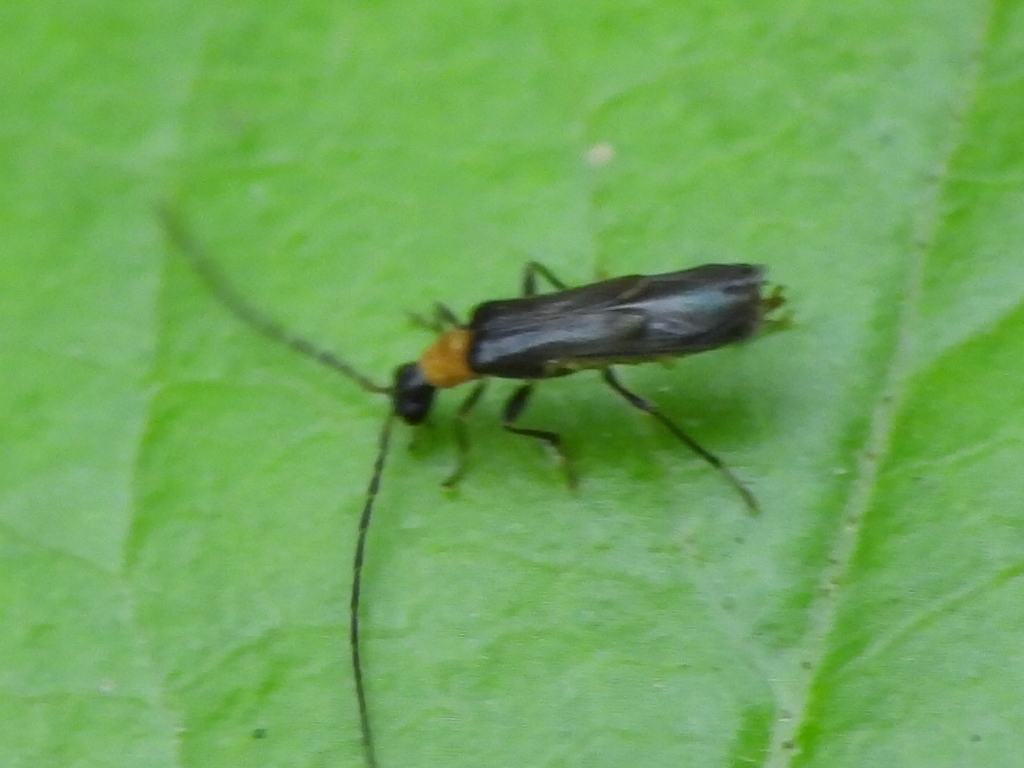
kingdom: Animalia
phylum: Arthropoda
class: Insecta
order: Coleoptera
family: Cantharidae
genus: Malthinus
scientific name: Malthinus occipitalis
